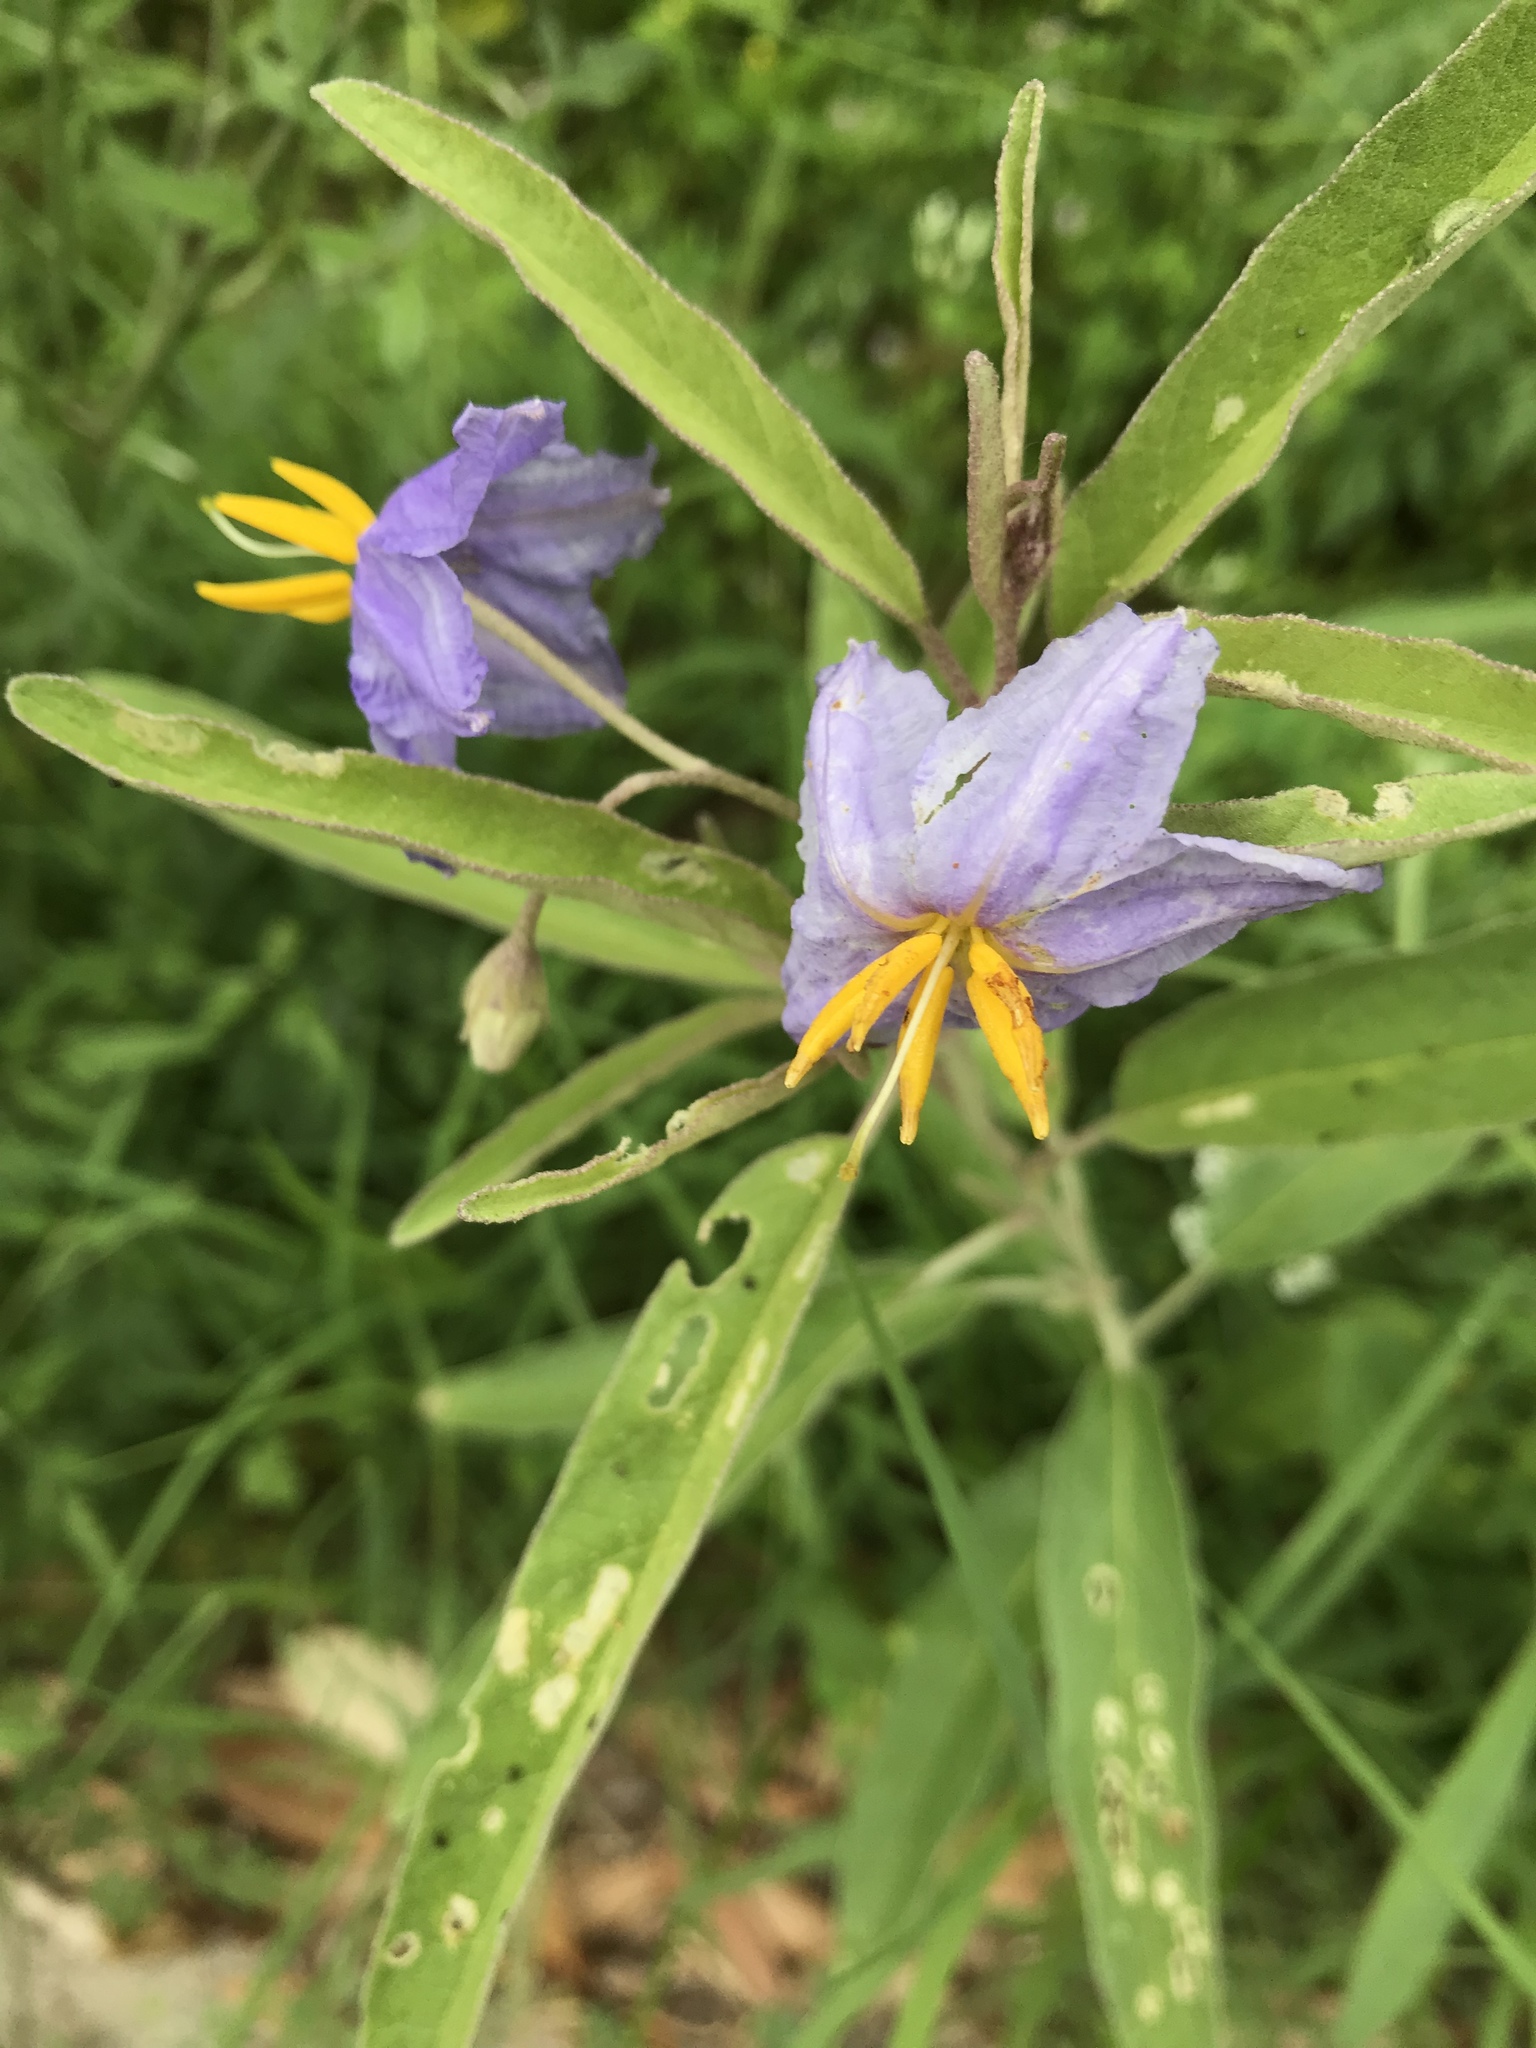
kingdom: Plantae
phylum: Tracheophyta
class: Magnoliopsida
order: Solanales
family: Solanaceae
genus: Solanum
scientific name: Solanum elaeagnifolium
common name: Silverleaf nightshade
